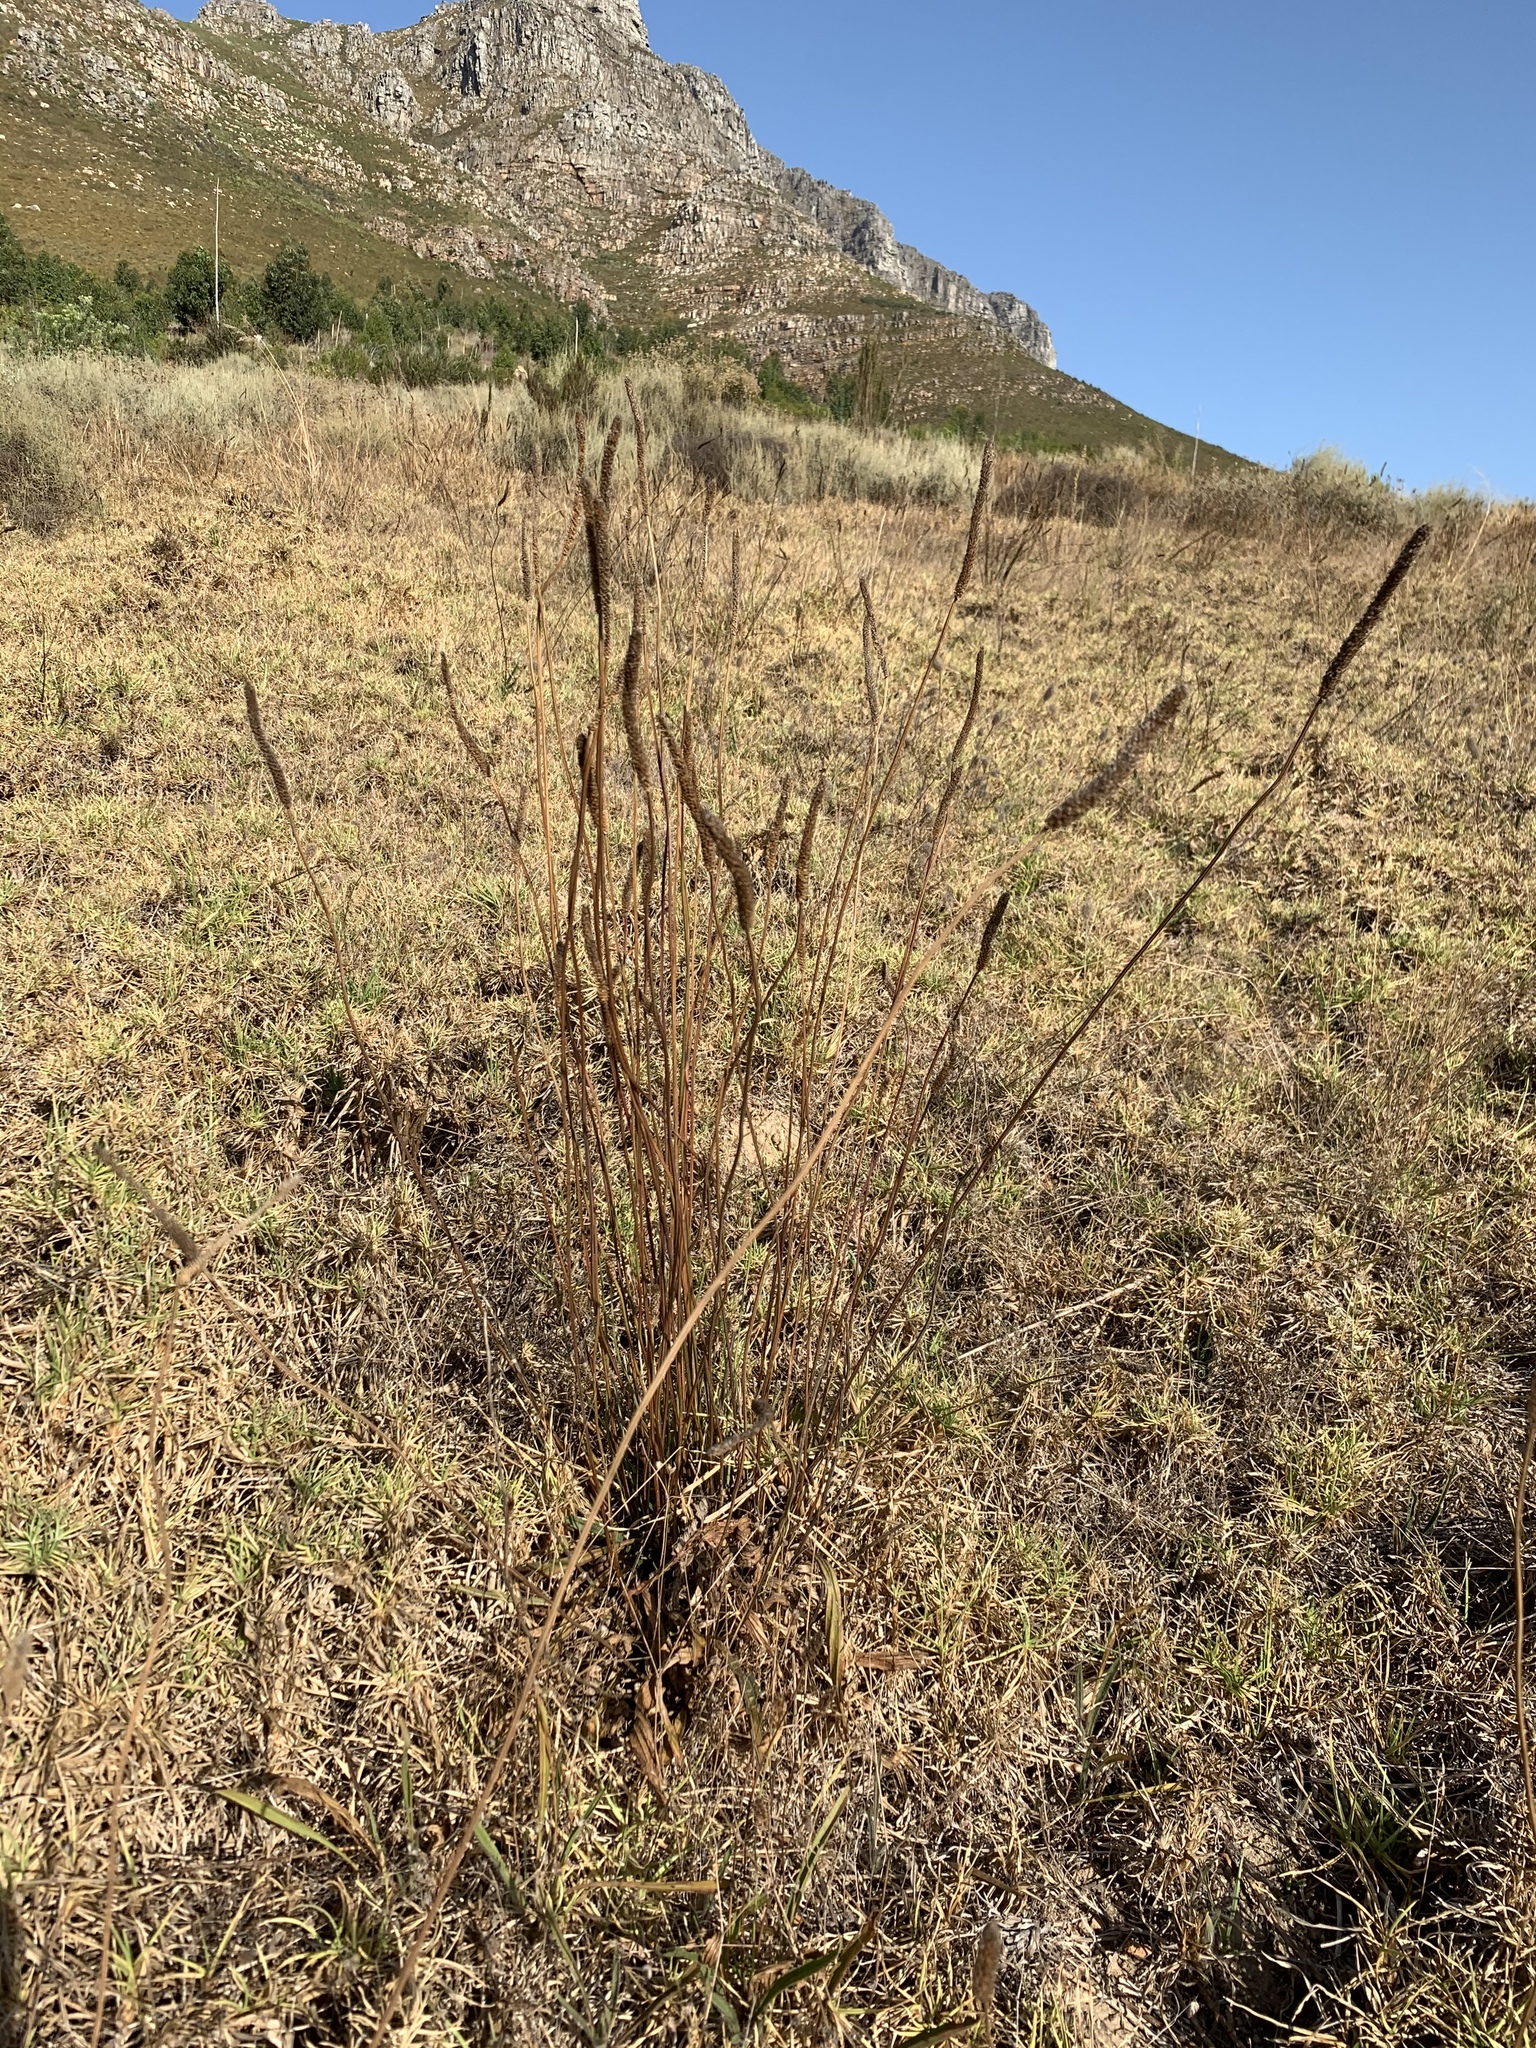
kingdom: Plantae
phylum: Tracheophyta
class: Magnoliopsida
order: Lamiales
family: Plantaginaceae
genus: Plantago
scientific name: Plantago lanceolata
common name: Ribwort plantain
